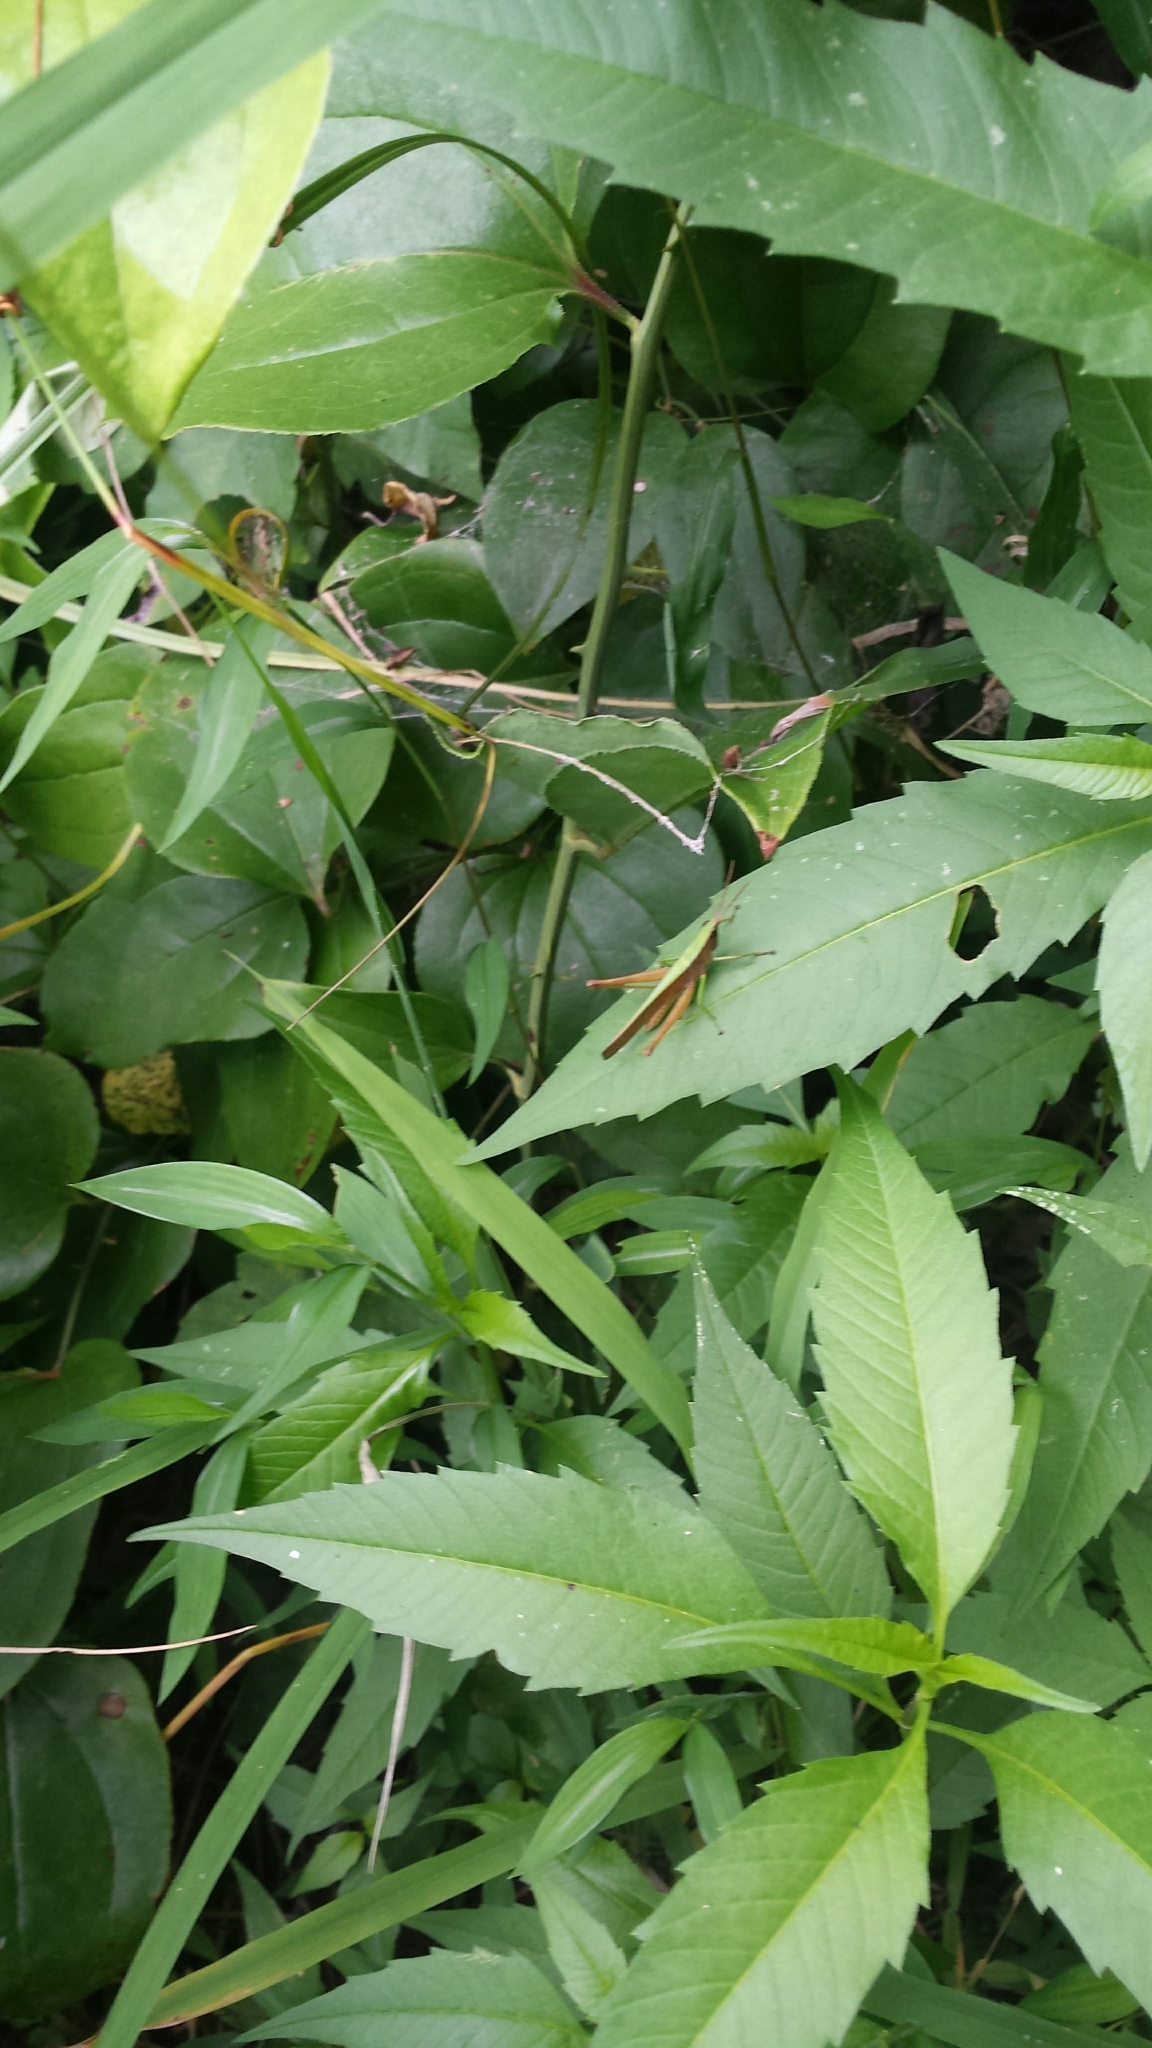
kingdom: Animalia
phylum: Arthropoda
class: Insecta
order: Orthoptera
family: Acrididae
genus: Metaleptea
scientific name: Metaleptea brevicornis
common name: Clipped-wing grasshopper
